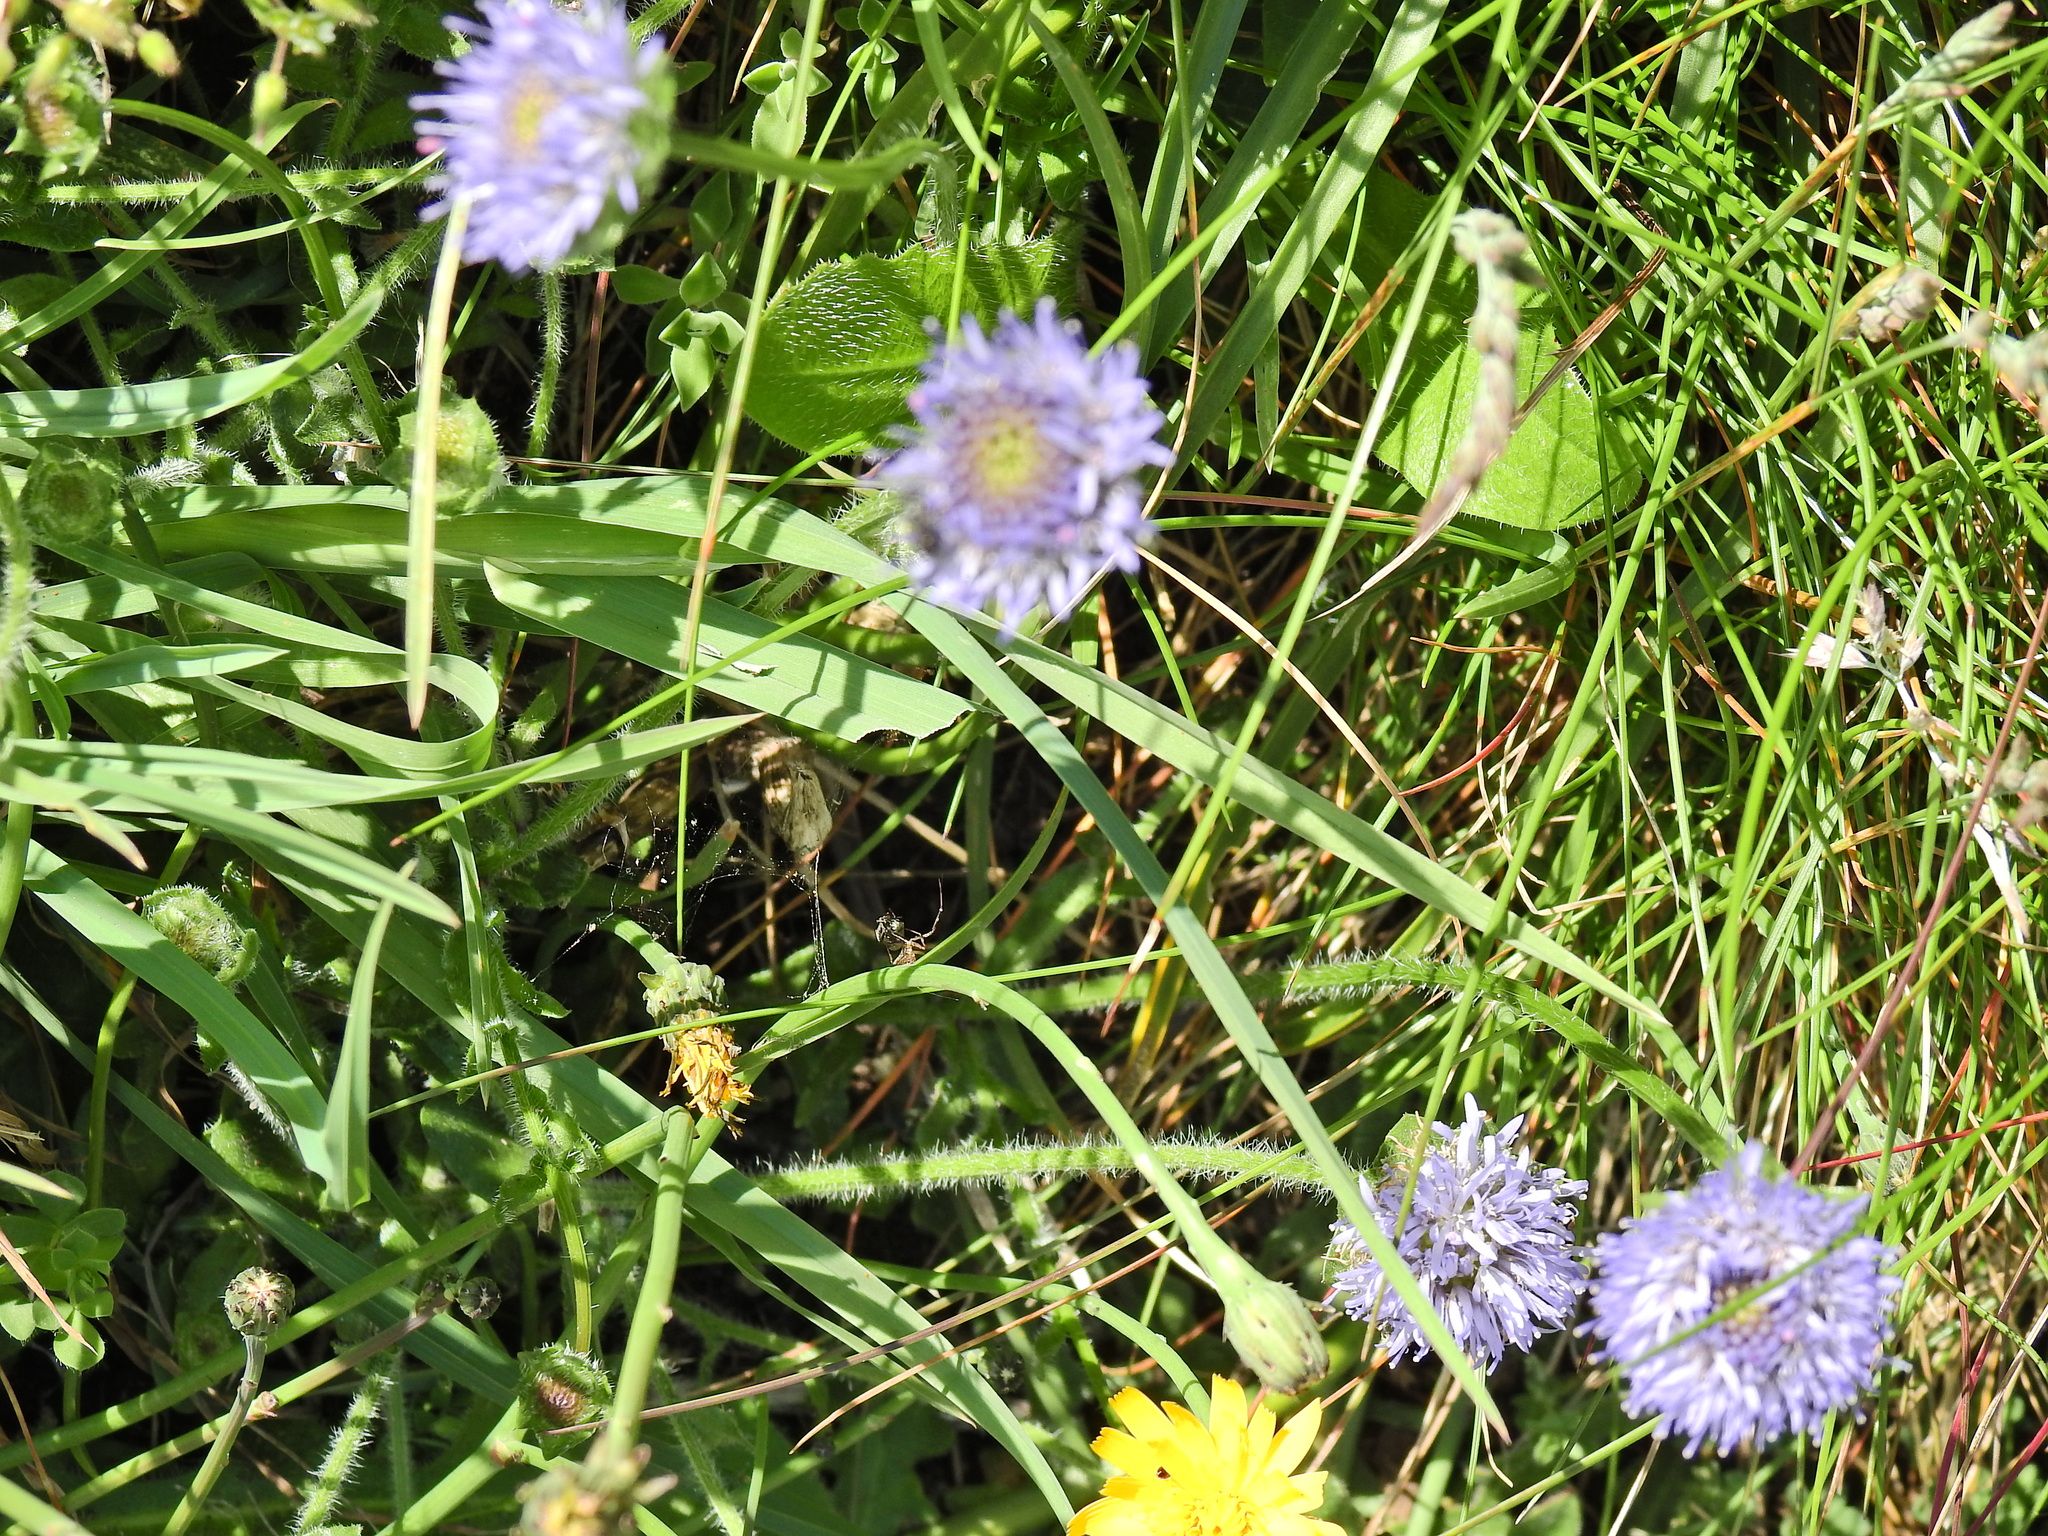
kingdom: Plantae
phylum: Tracheophyta
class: Magnoliopsida
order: Asterales
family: Campanulaceae
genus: Jasione
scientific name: Jasione montana
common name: Sheep's-bit
